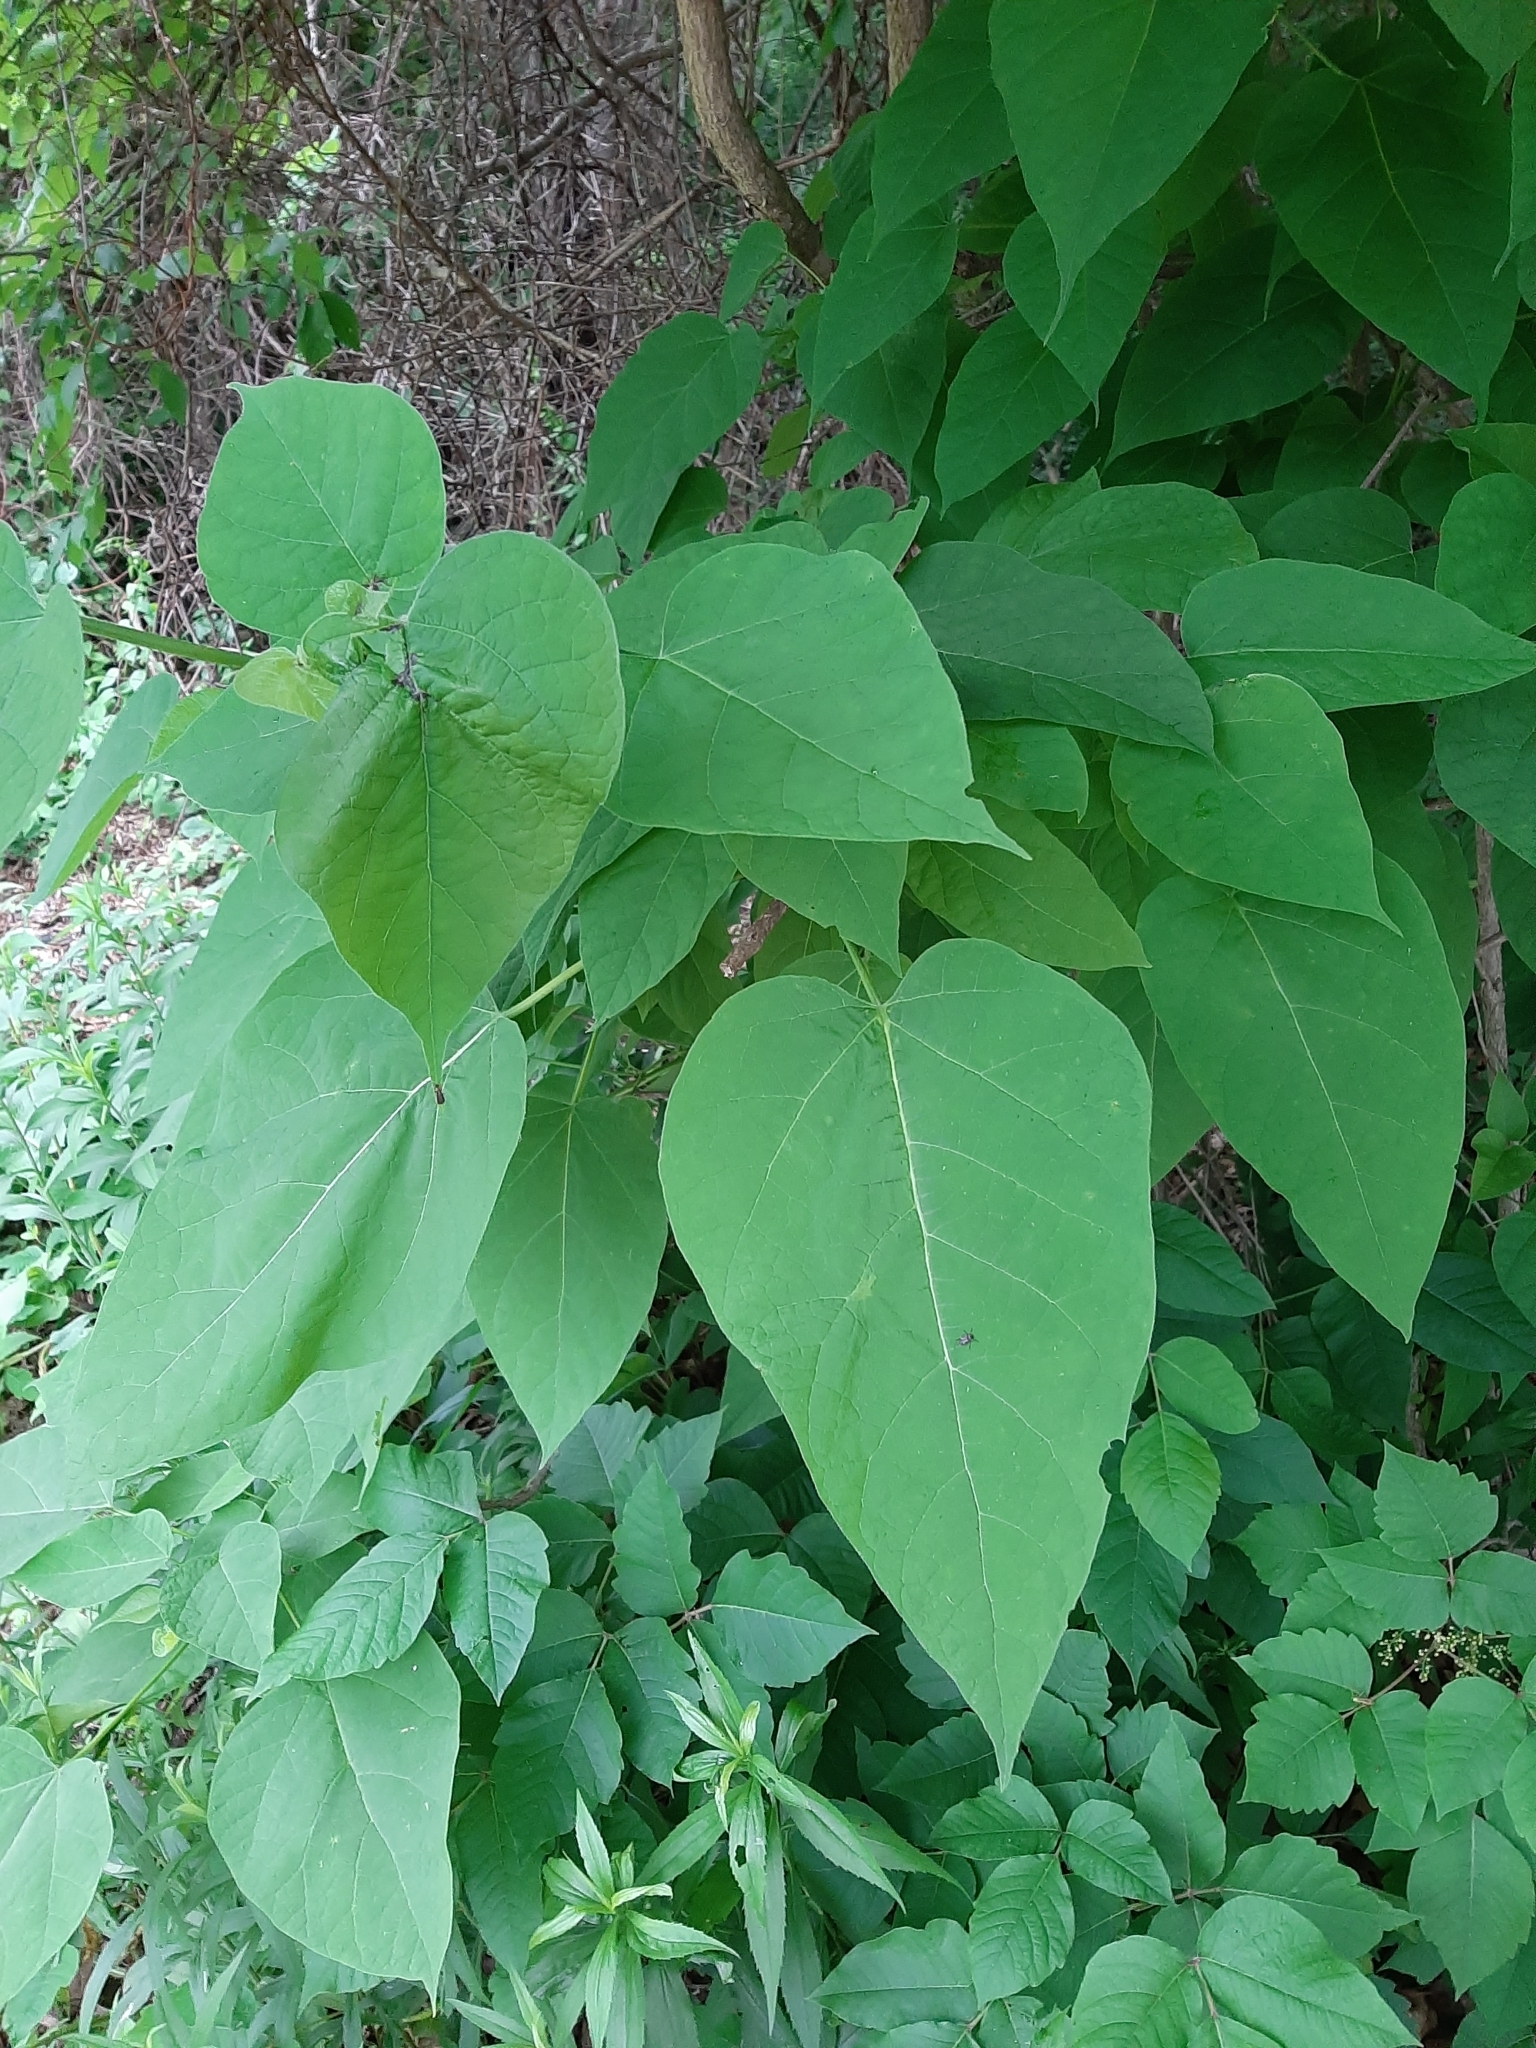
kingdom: Plantae
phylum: Tracheophyta
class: Magnoliopsida
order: Rosales
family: Moraceae
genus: Broussonetia
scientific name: Broussonetia papyrifera
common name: Paper mulberry
